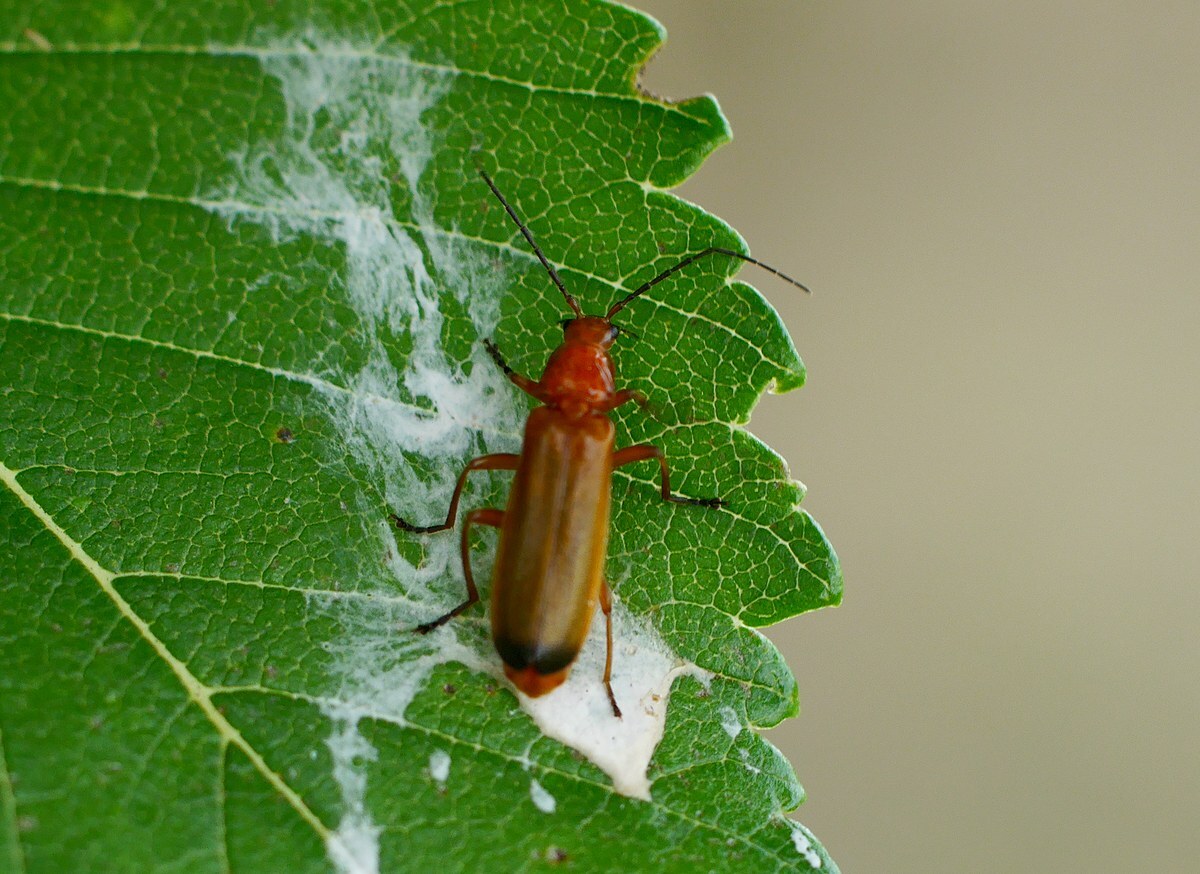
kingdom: Animalia
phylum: Arthropoda
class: Insecta
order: Coleoptera
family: Cantharidae
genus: Rhagonycha
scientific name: Rhagonycha fulva
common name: Common red soldier beetle
